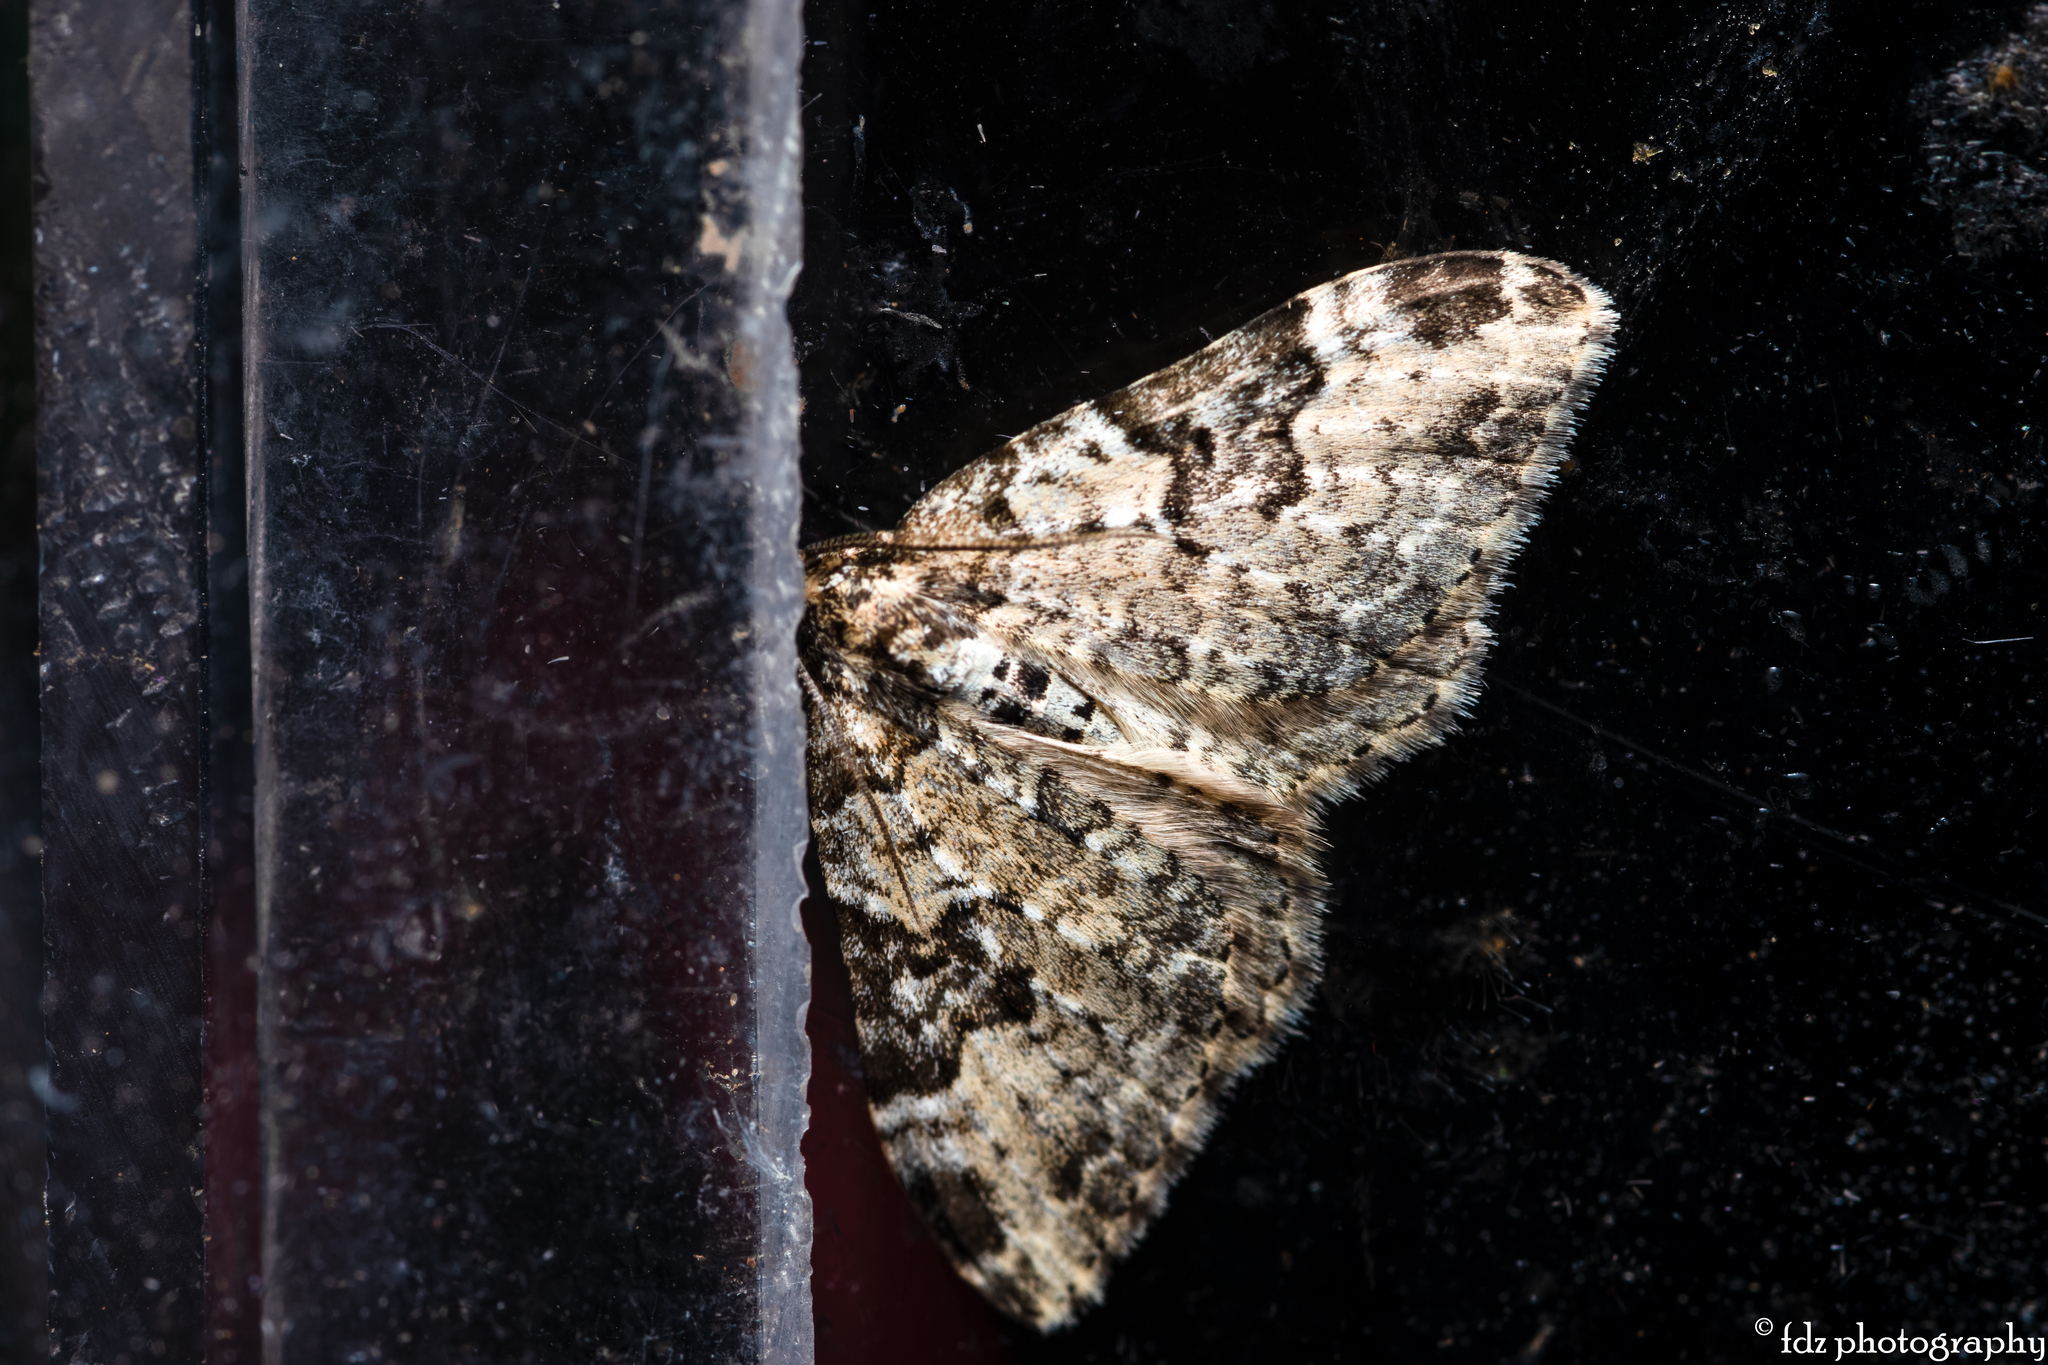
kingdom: Animalia
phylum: Arthropoda
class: Insecta
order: Lepidoptera
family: Geometridae
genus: Xanthorhoe
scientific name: Xanthorhoe fluctuata
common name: Garden carpet
